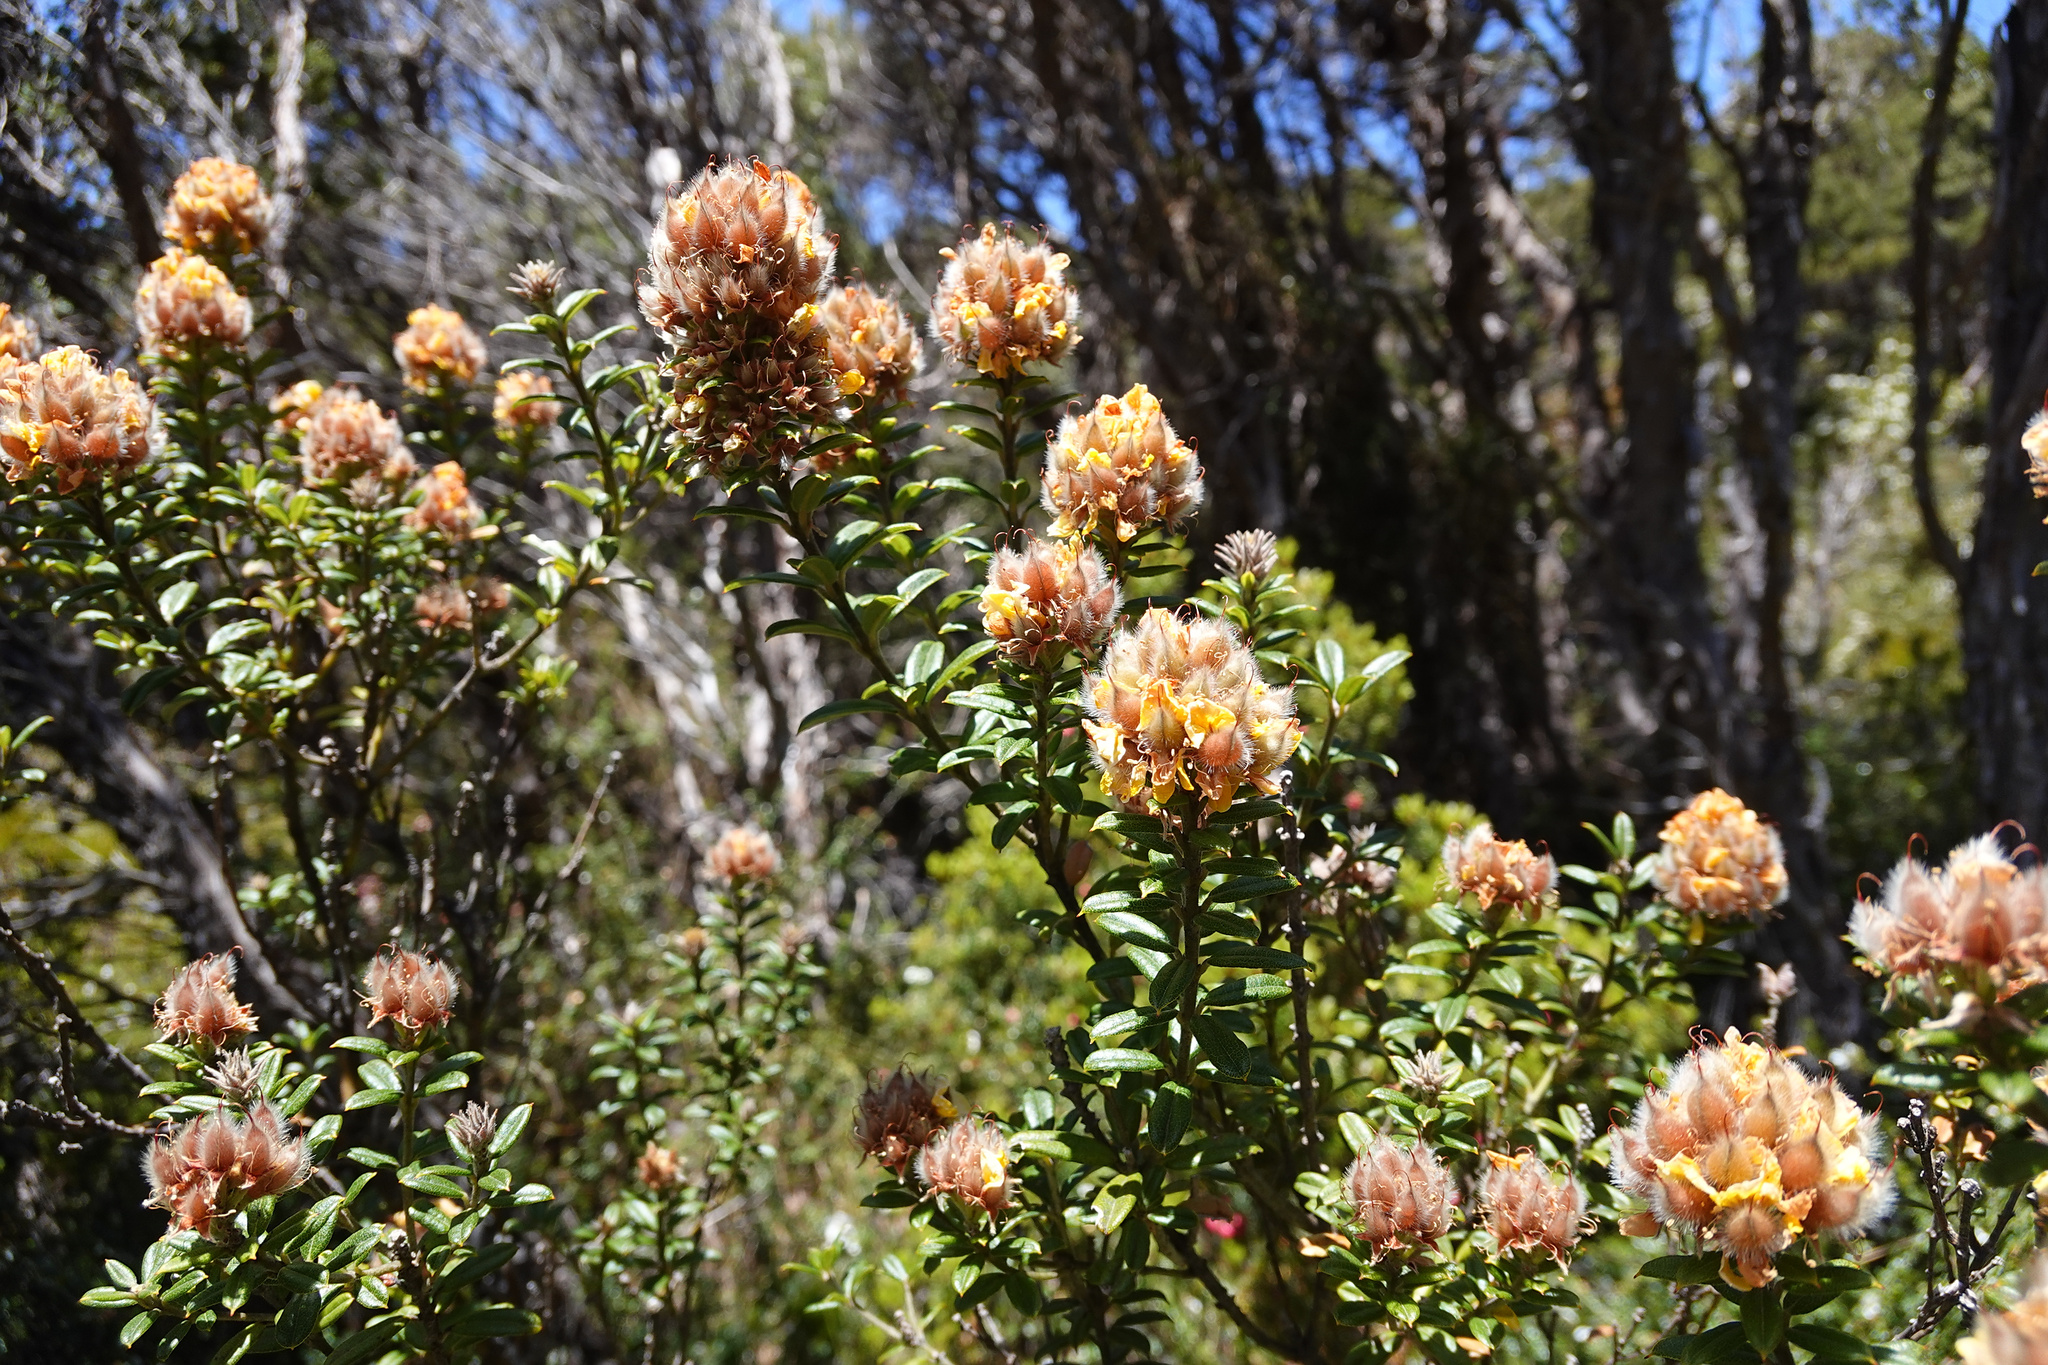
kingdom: Plantae
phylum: Tracheophyta
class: Magnoliopsida
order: Fabales
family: Fabaceae
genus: Oxylobium
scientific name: Oxylobium ellipticum
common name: Golden shaggy-pea
